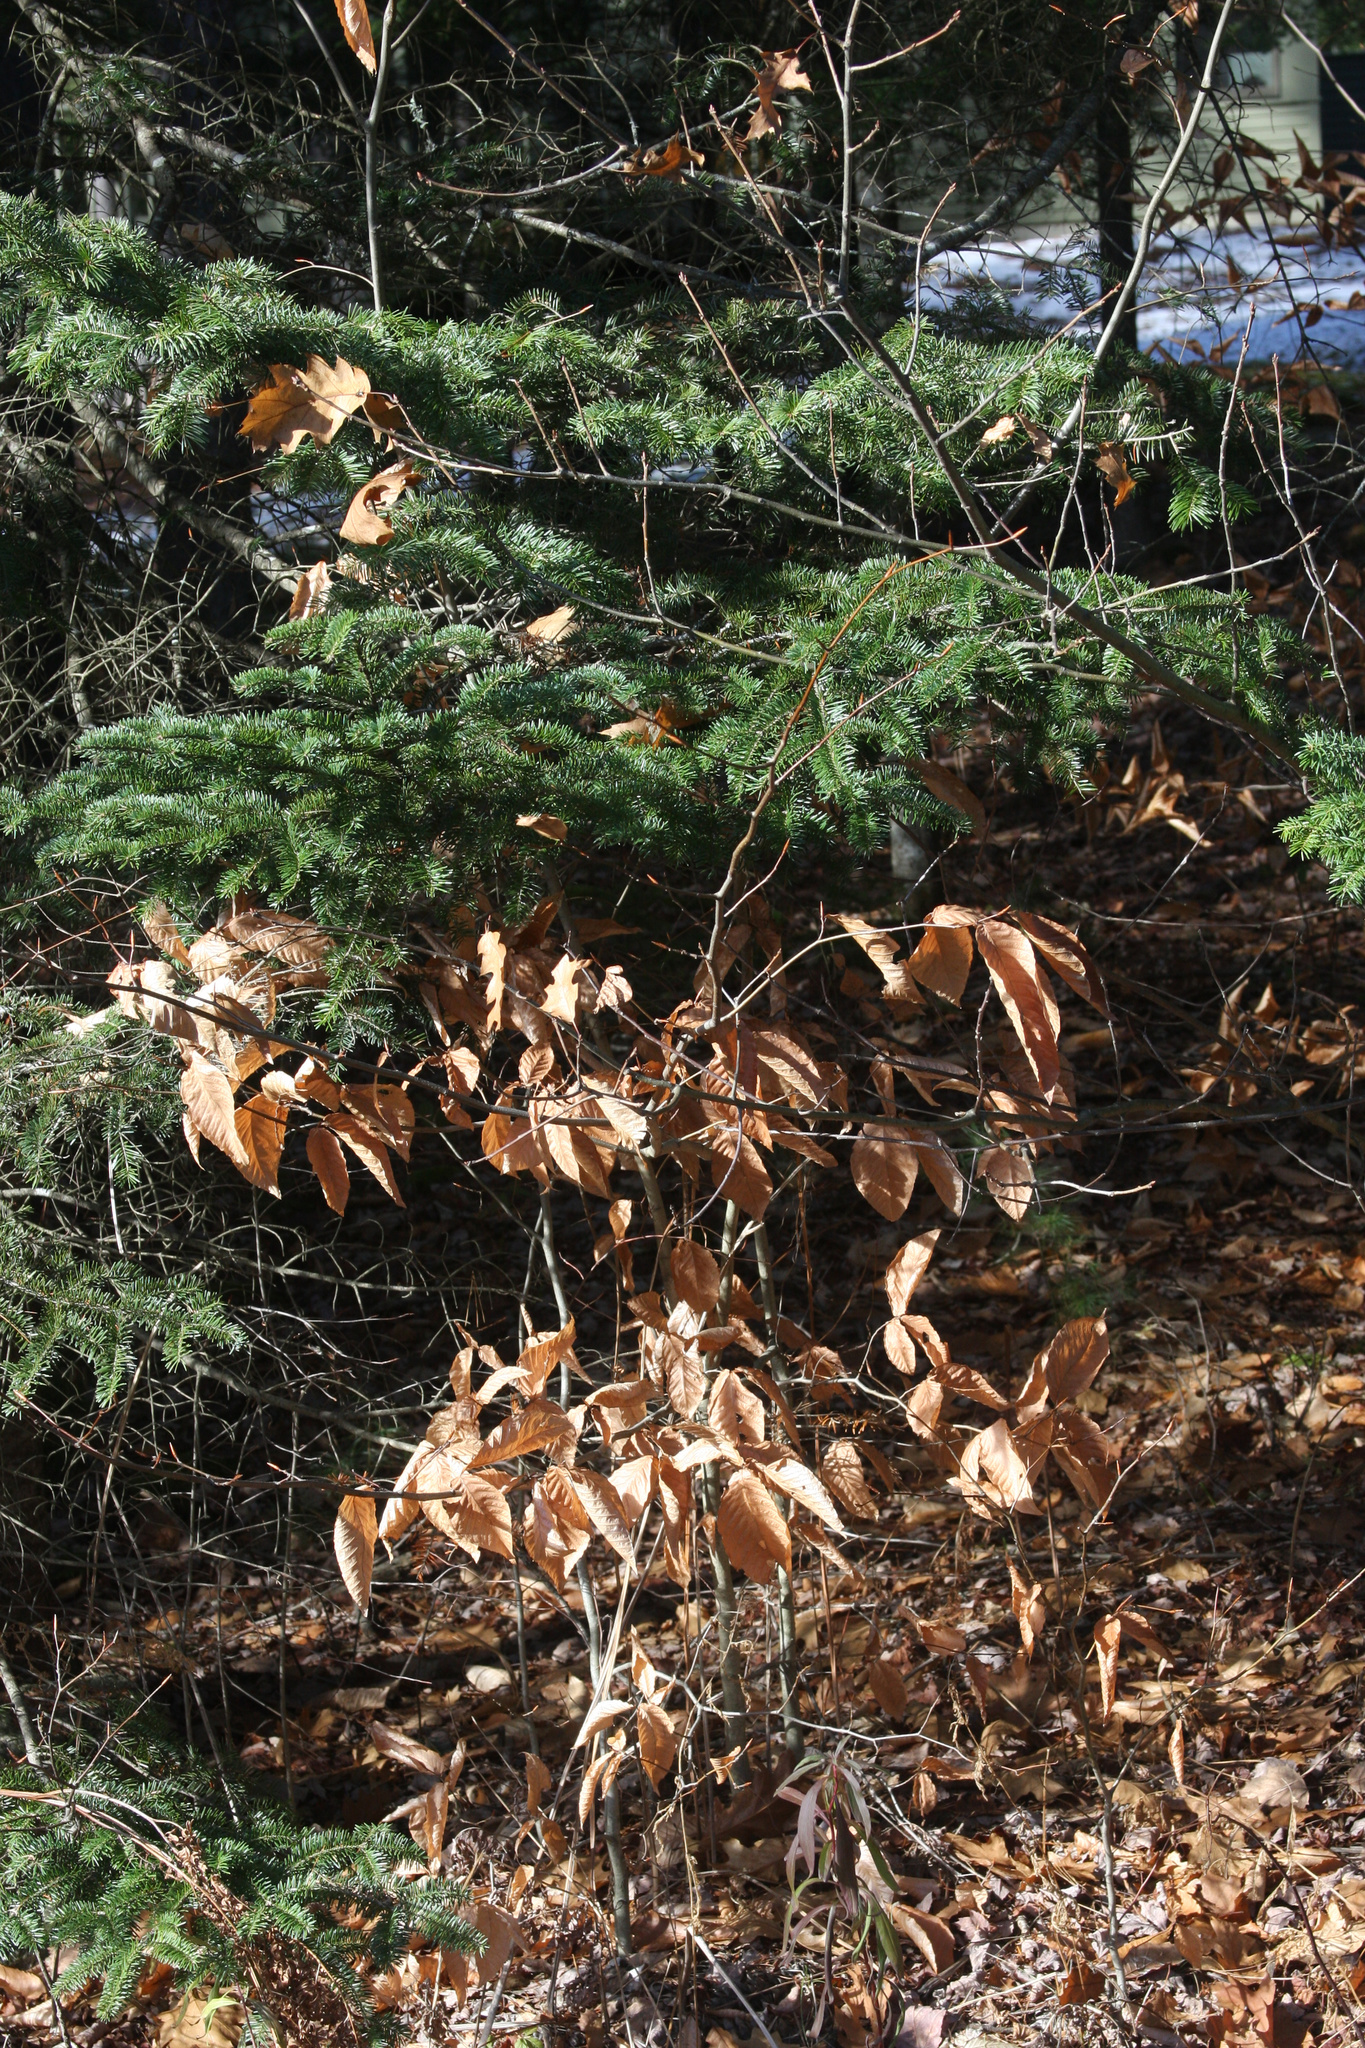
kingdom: Plantae
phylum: Tracheophyta
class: Magnoliopsida
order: Fagales
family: Fagaceae
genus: Fagus
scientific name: Fagus grandifolia
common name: American beech
